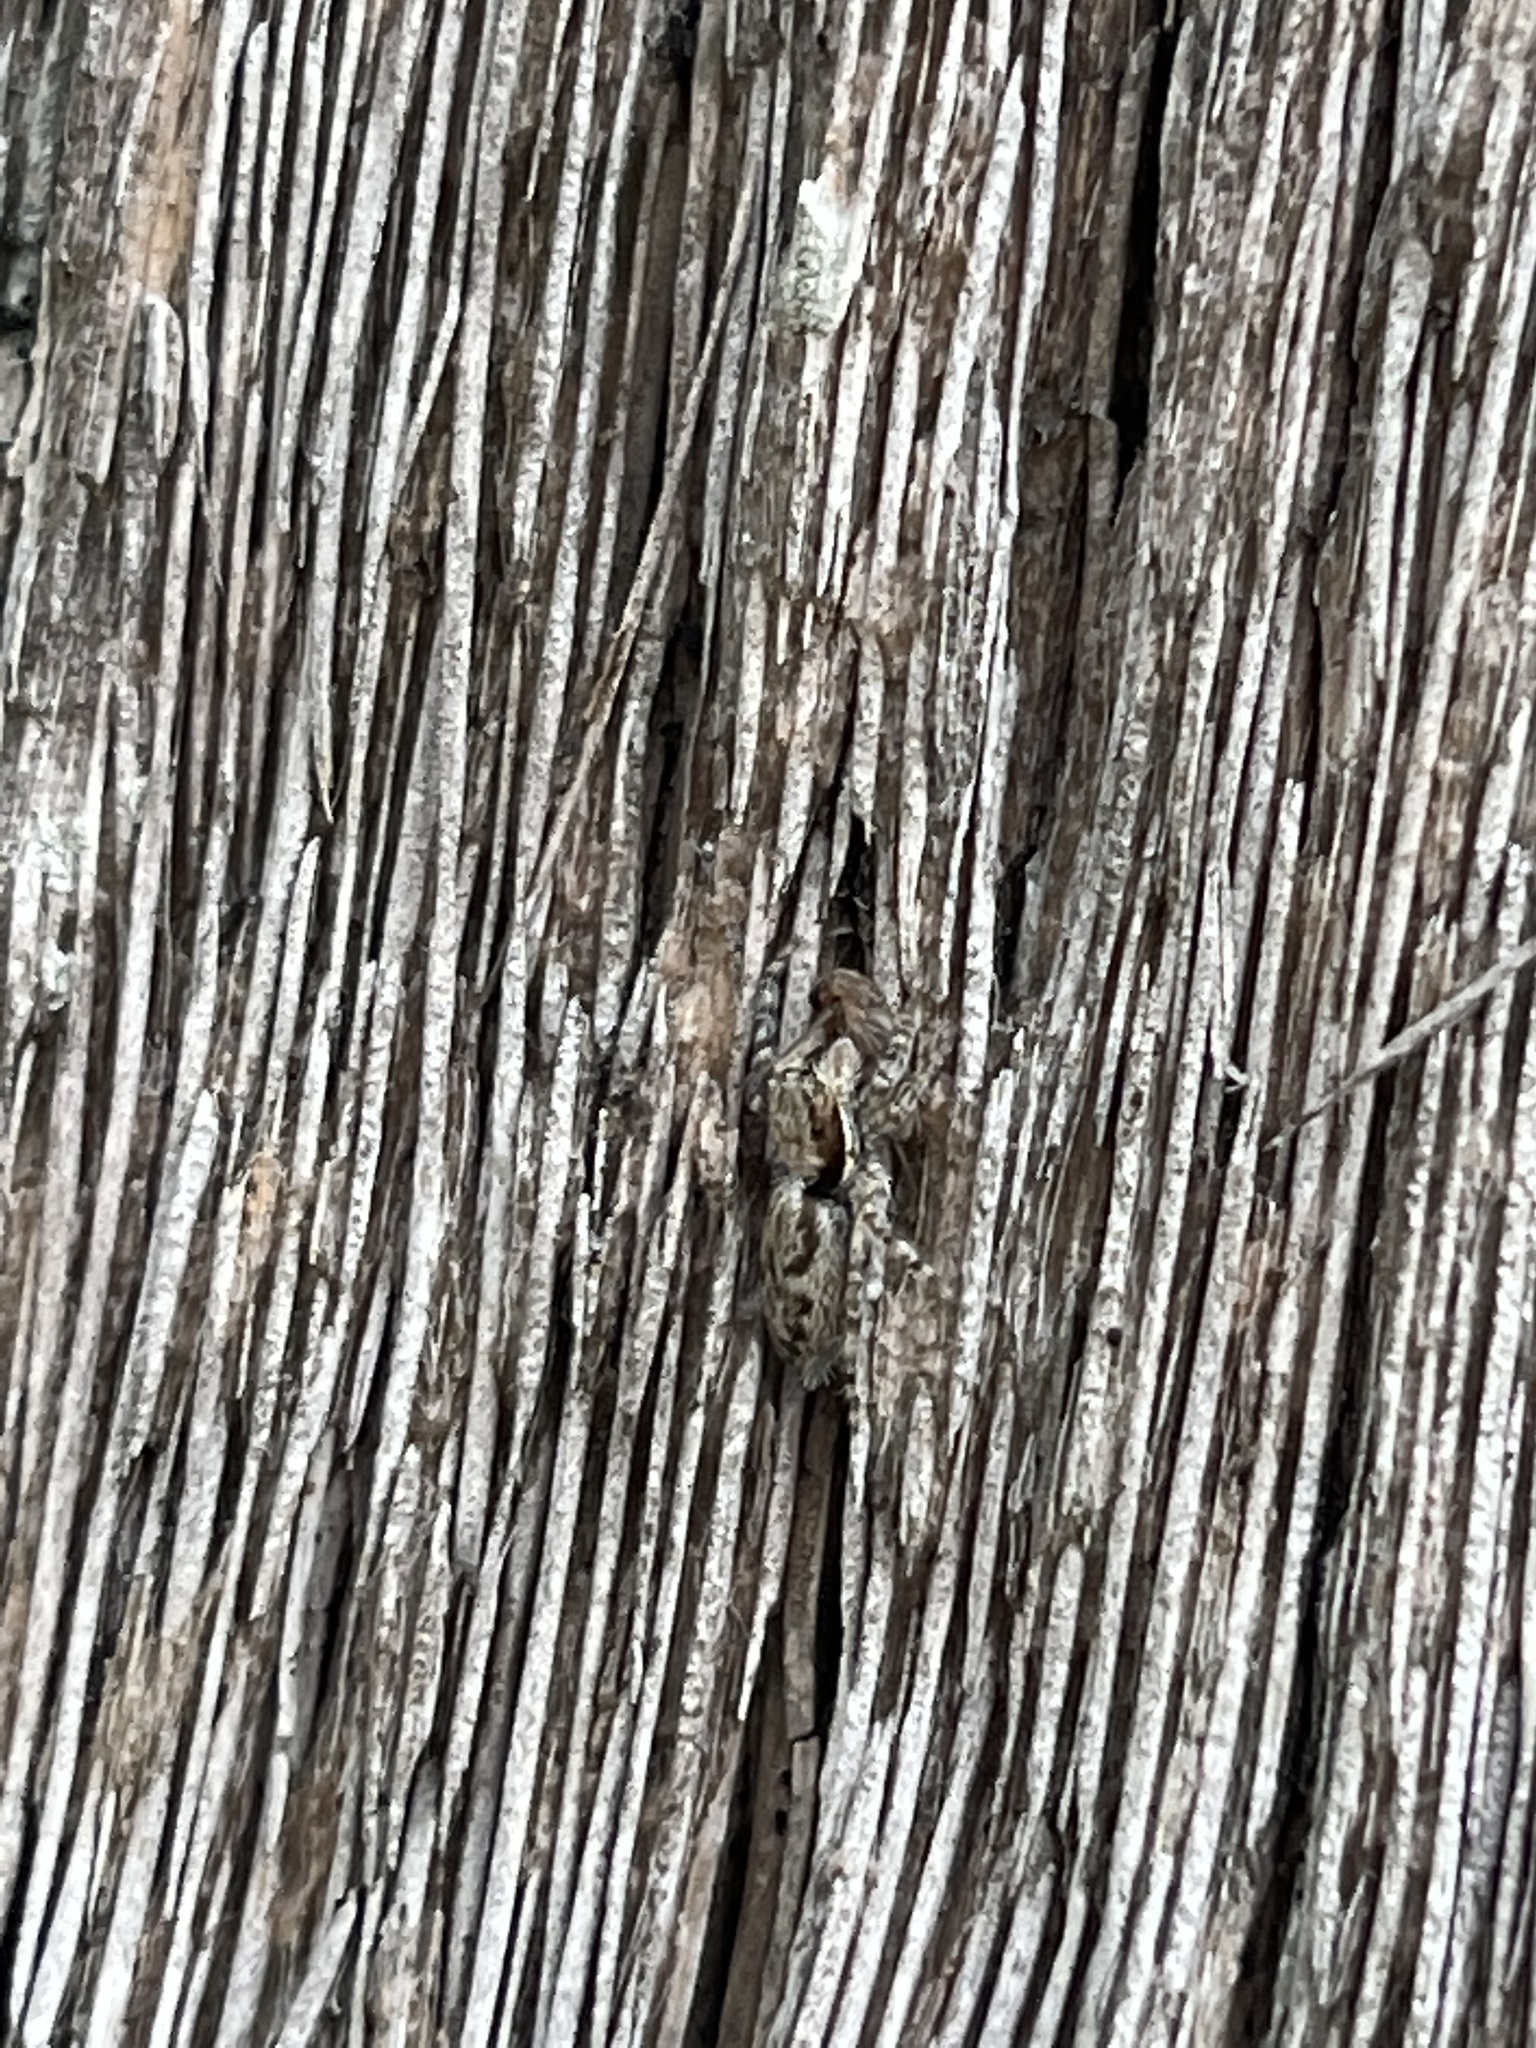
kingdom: Animalia
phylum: Arthropoda
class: Arachnida
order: Araneae
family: Salticidae
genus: Menemerus
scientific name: Menemerus bivittatus
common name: Gray wall jumper
